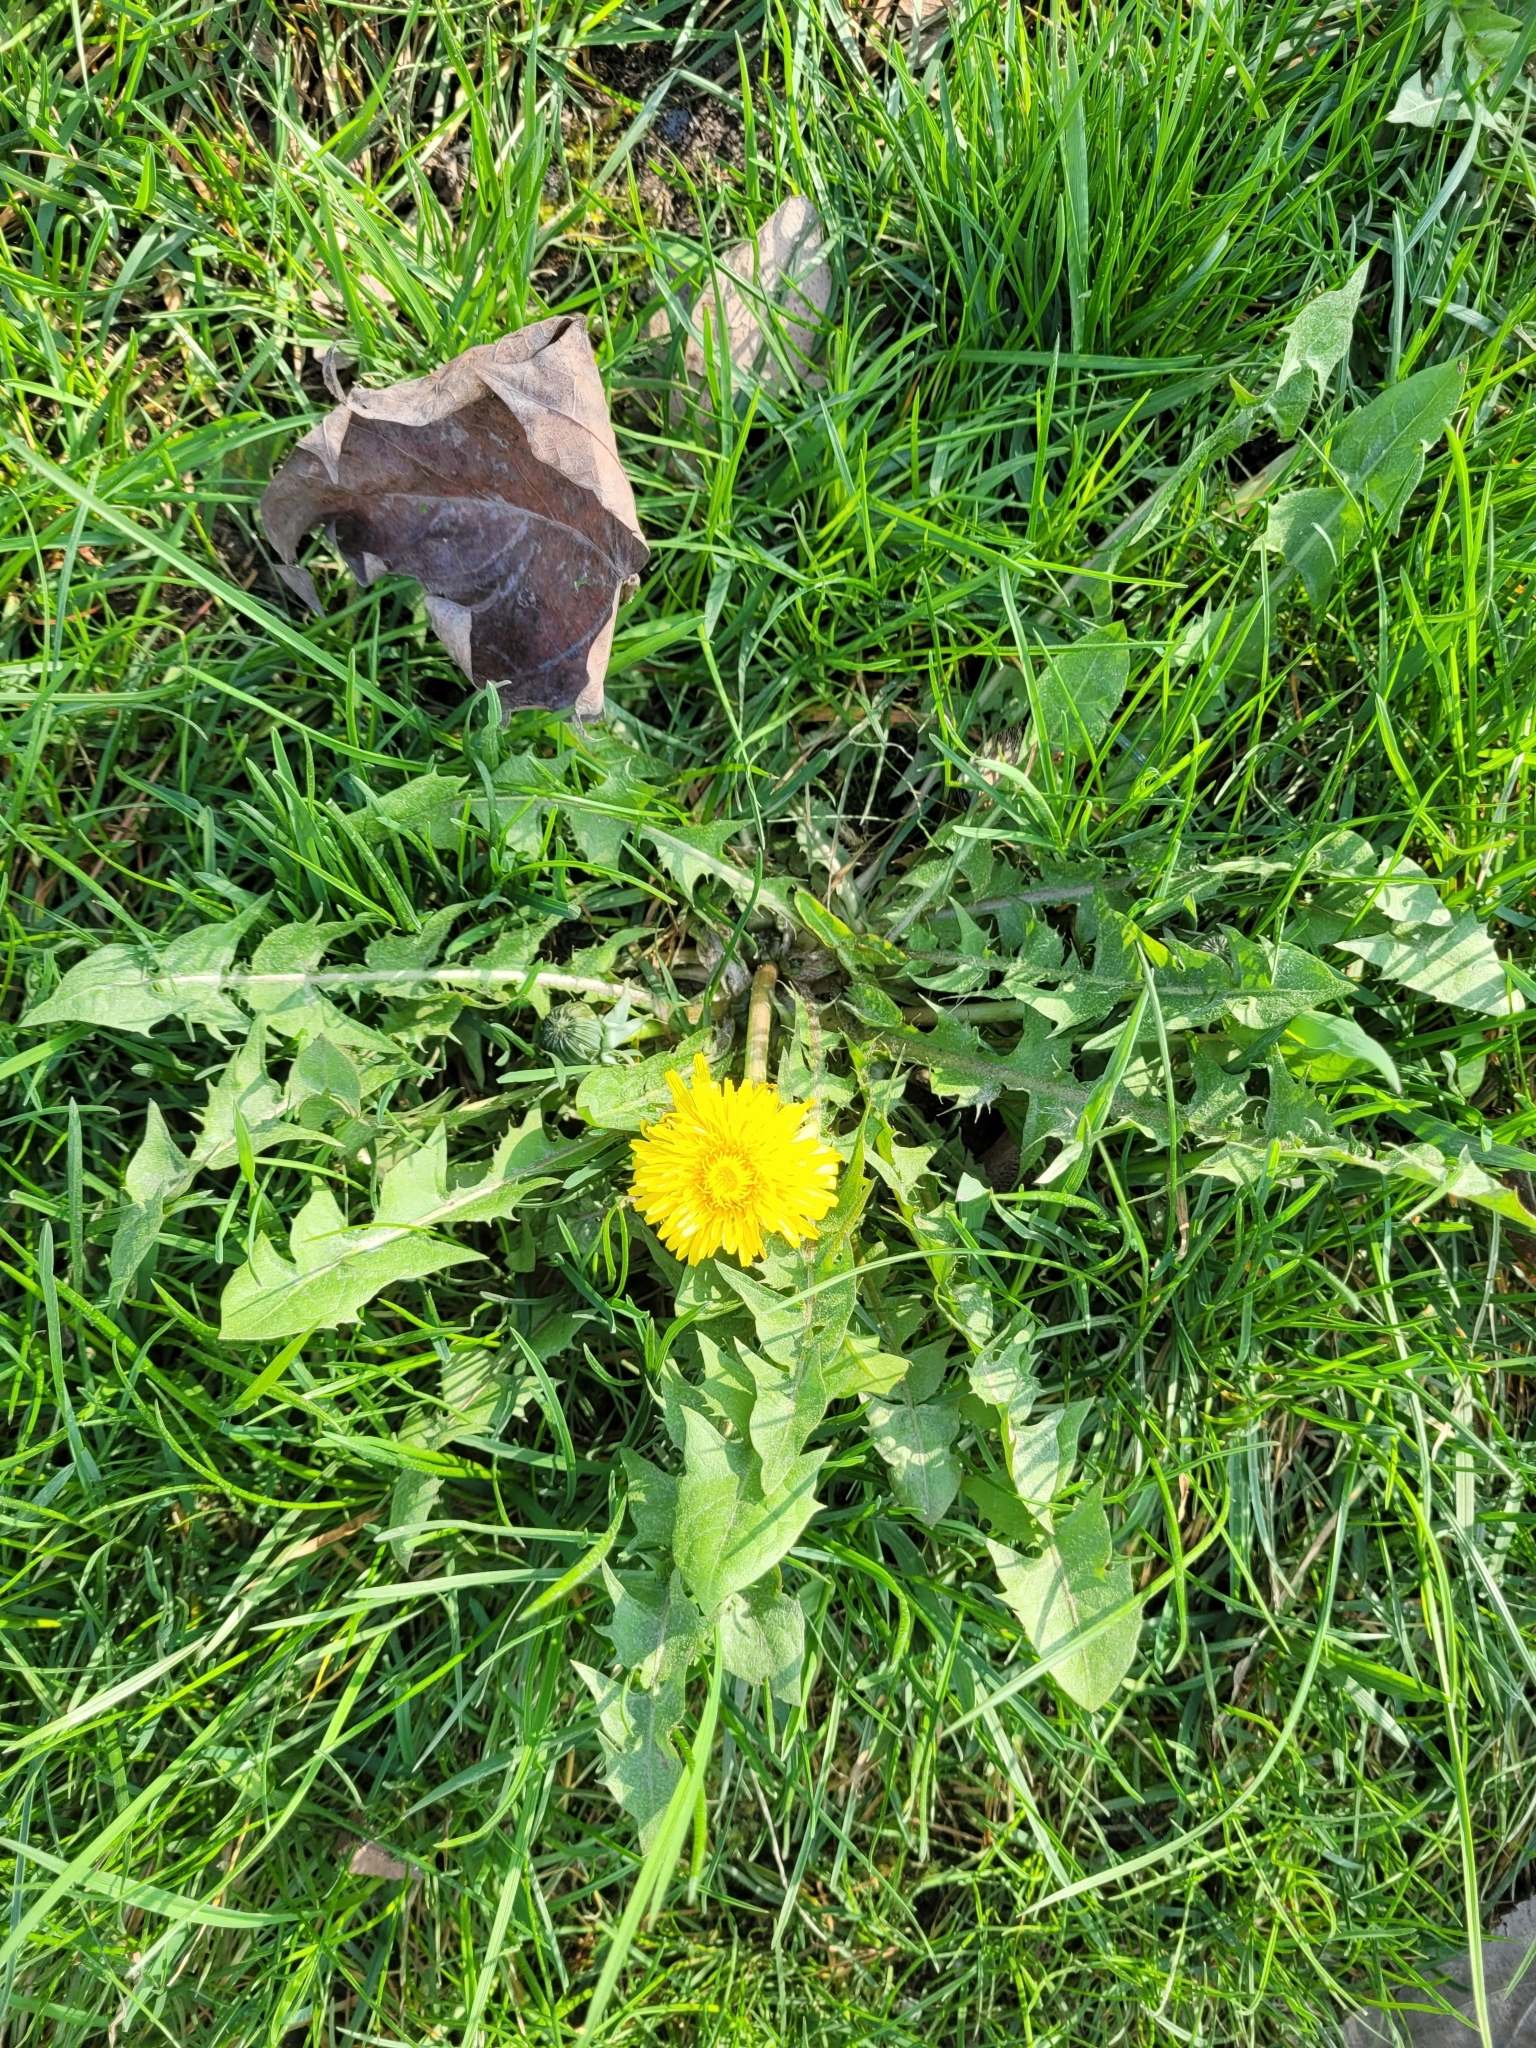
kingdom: Plantae
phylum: Tracheophyta
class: Magnoliopsida
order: Asterales
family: Asteraceae
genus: Taraxacum
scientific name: Taraxacum officinale
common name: Common dandelion
